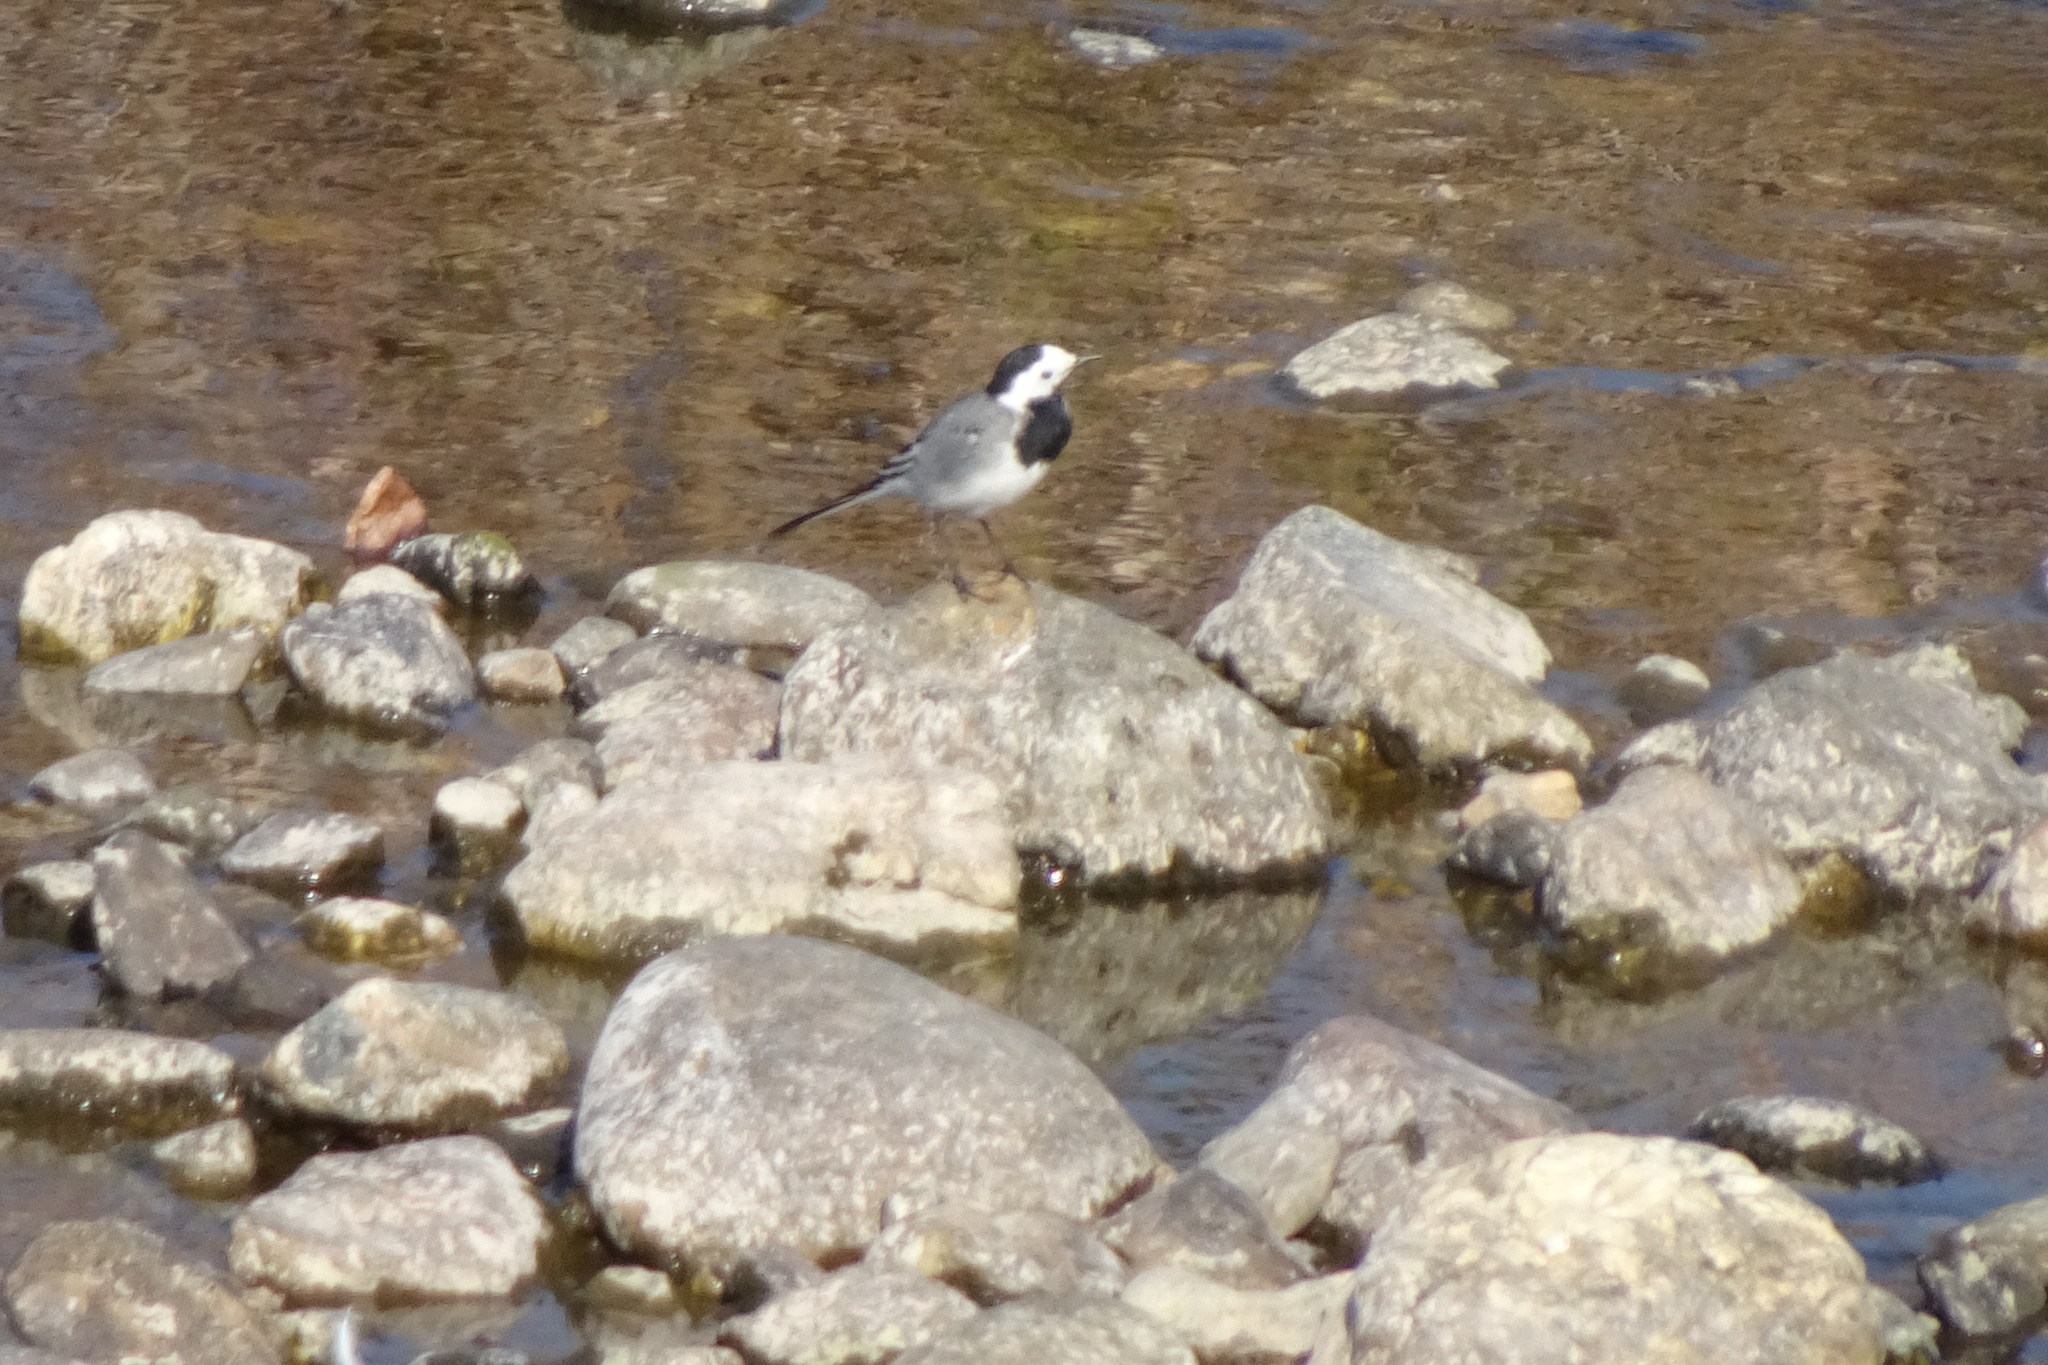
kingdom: Animalia
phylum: Chordata
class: Aves
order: Passeriformes
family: Motacillidae
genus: Motacilla
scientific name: Motacilla alba
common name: White wagtail
